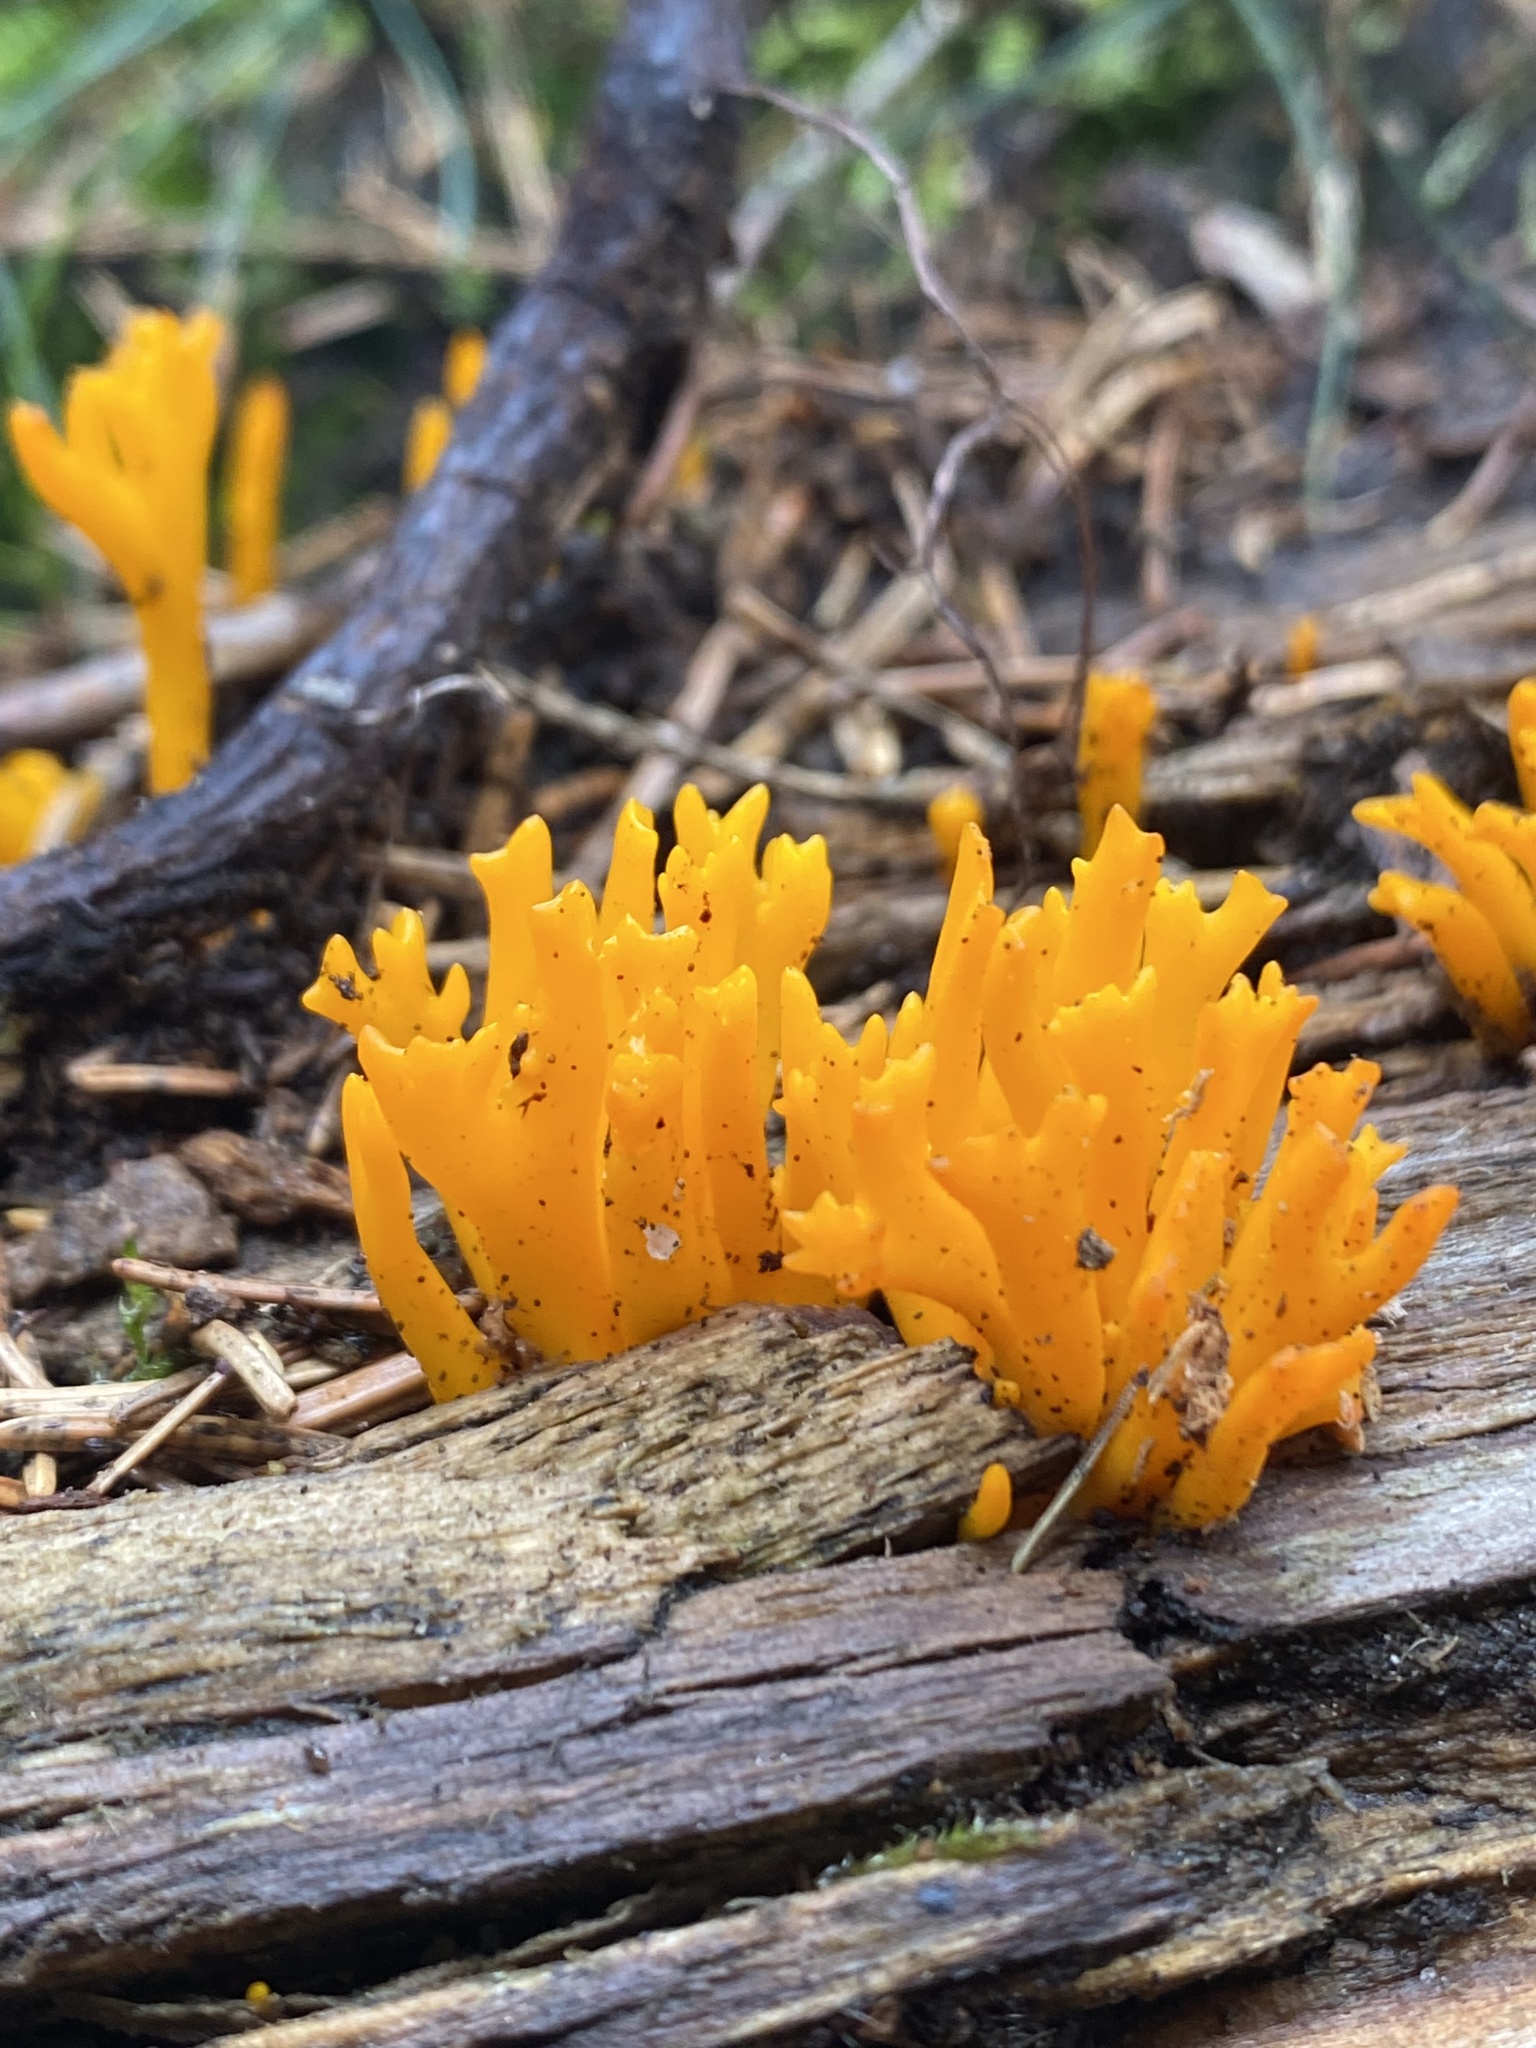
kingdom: Fungi
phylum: Basidiomycota
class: Dacrymycetes
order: Dacrymycetales
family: Dacrymycetaceae
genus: Calocera
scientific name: Calocera viscosa
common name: Yellow stagshorn
